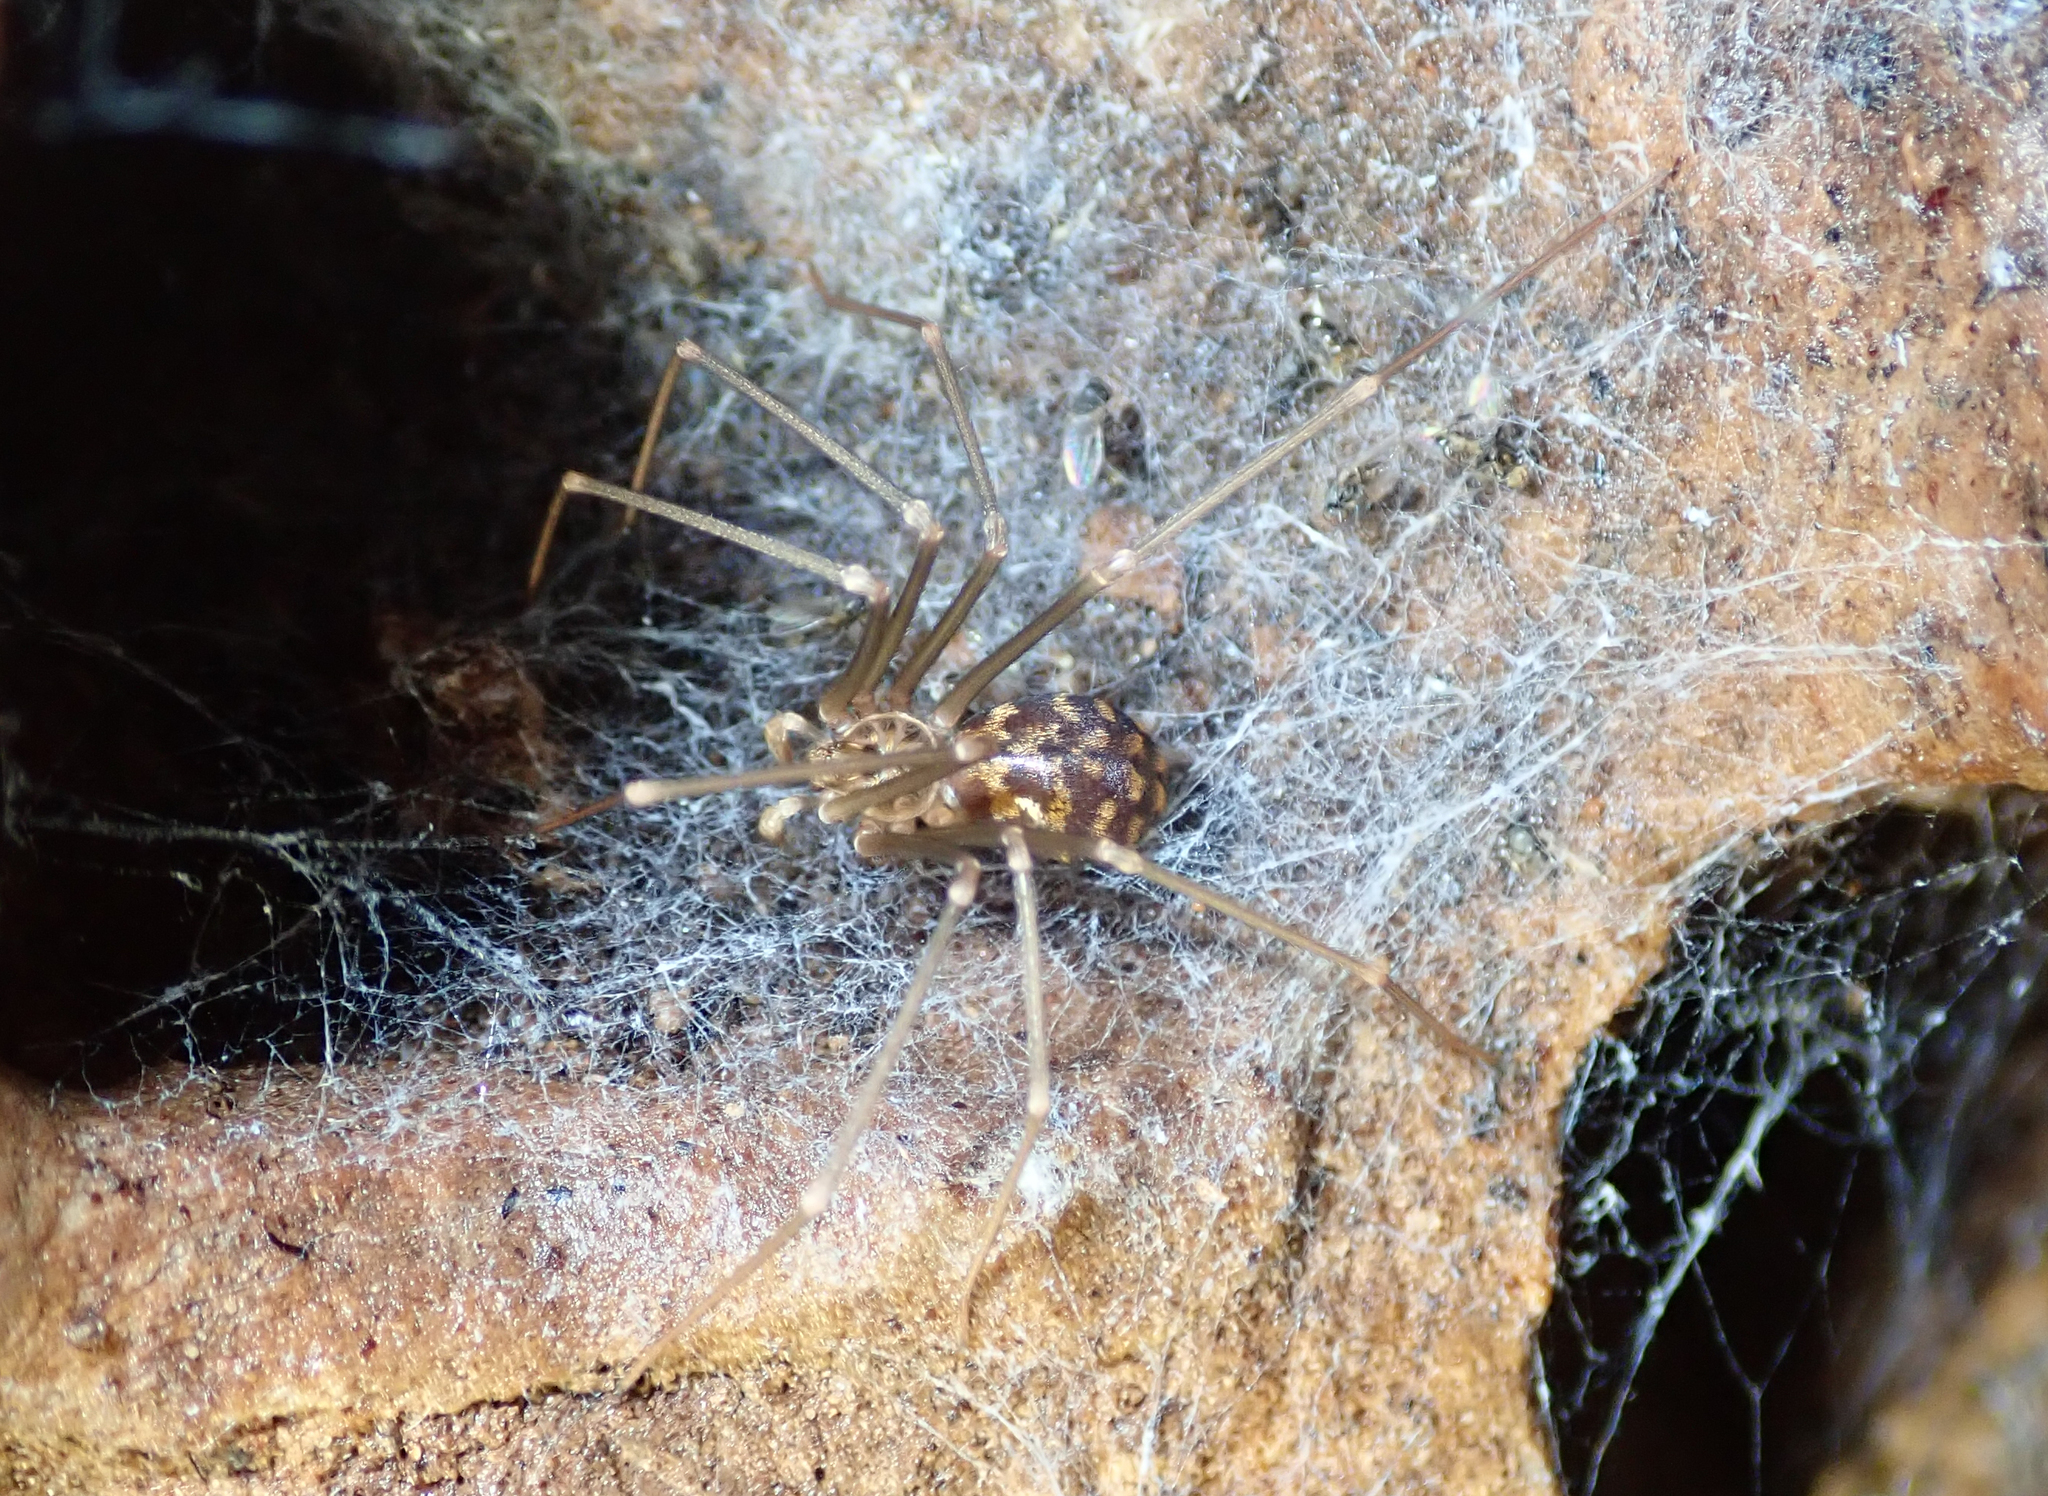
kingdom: Animalia
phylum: Arthropoda
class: Arachnida
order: Araneae
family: Sicariidae
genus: Loxosceles
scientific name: Loxosceles simillima
